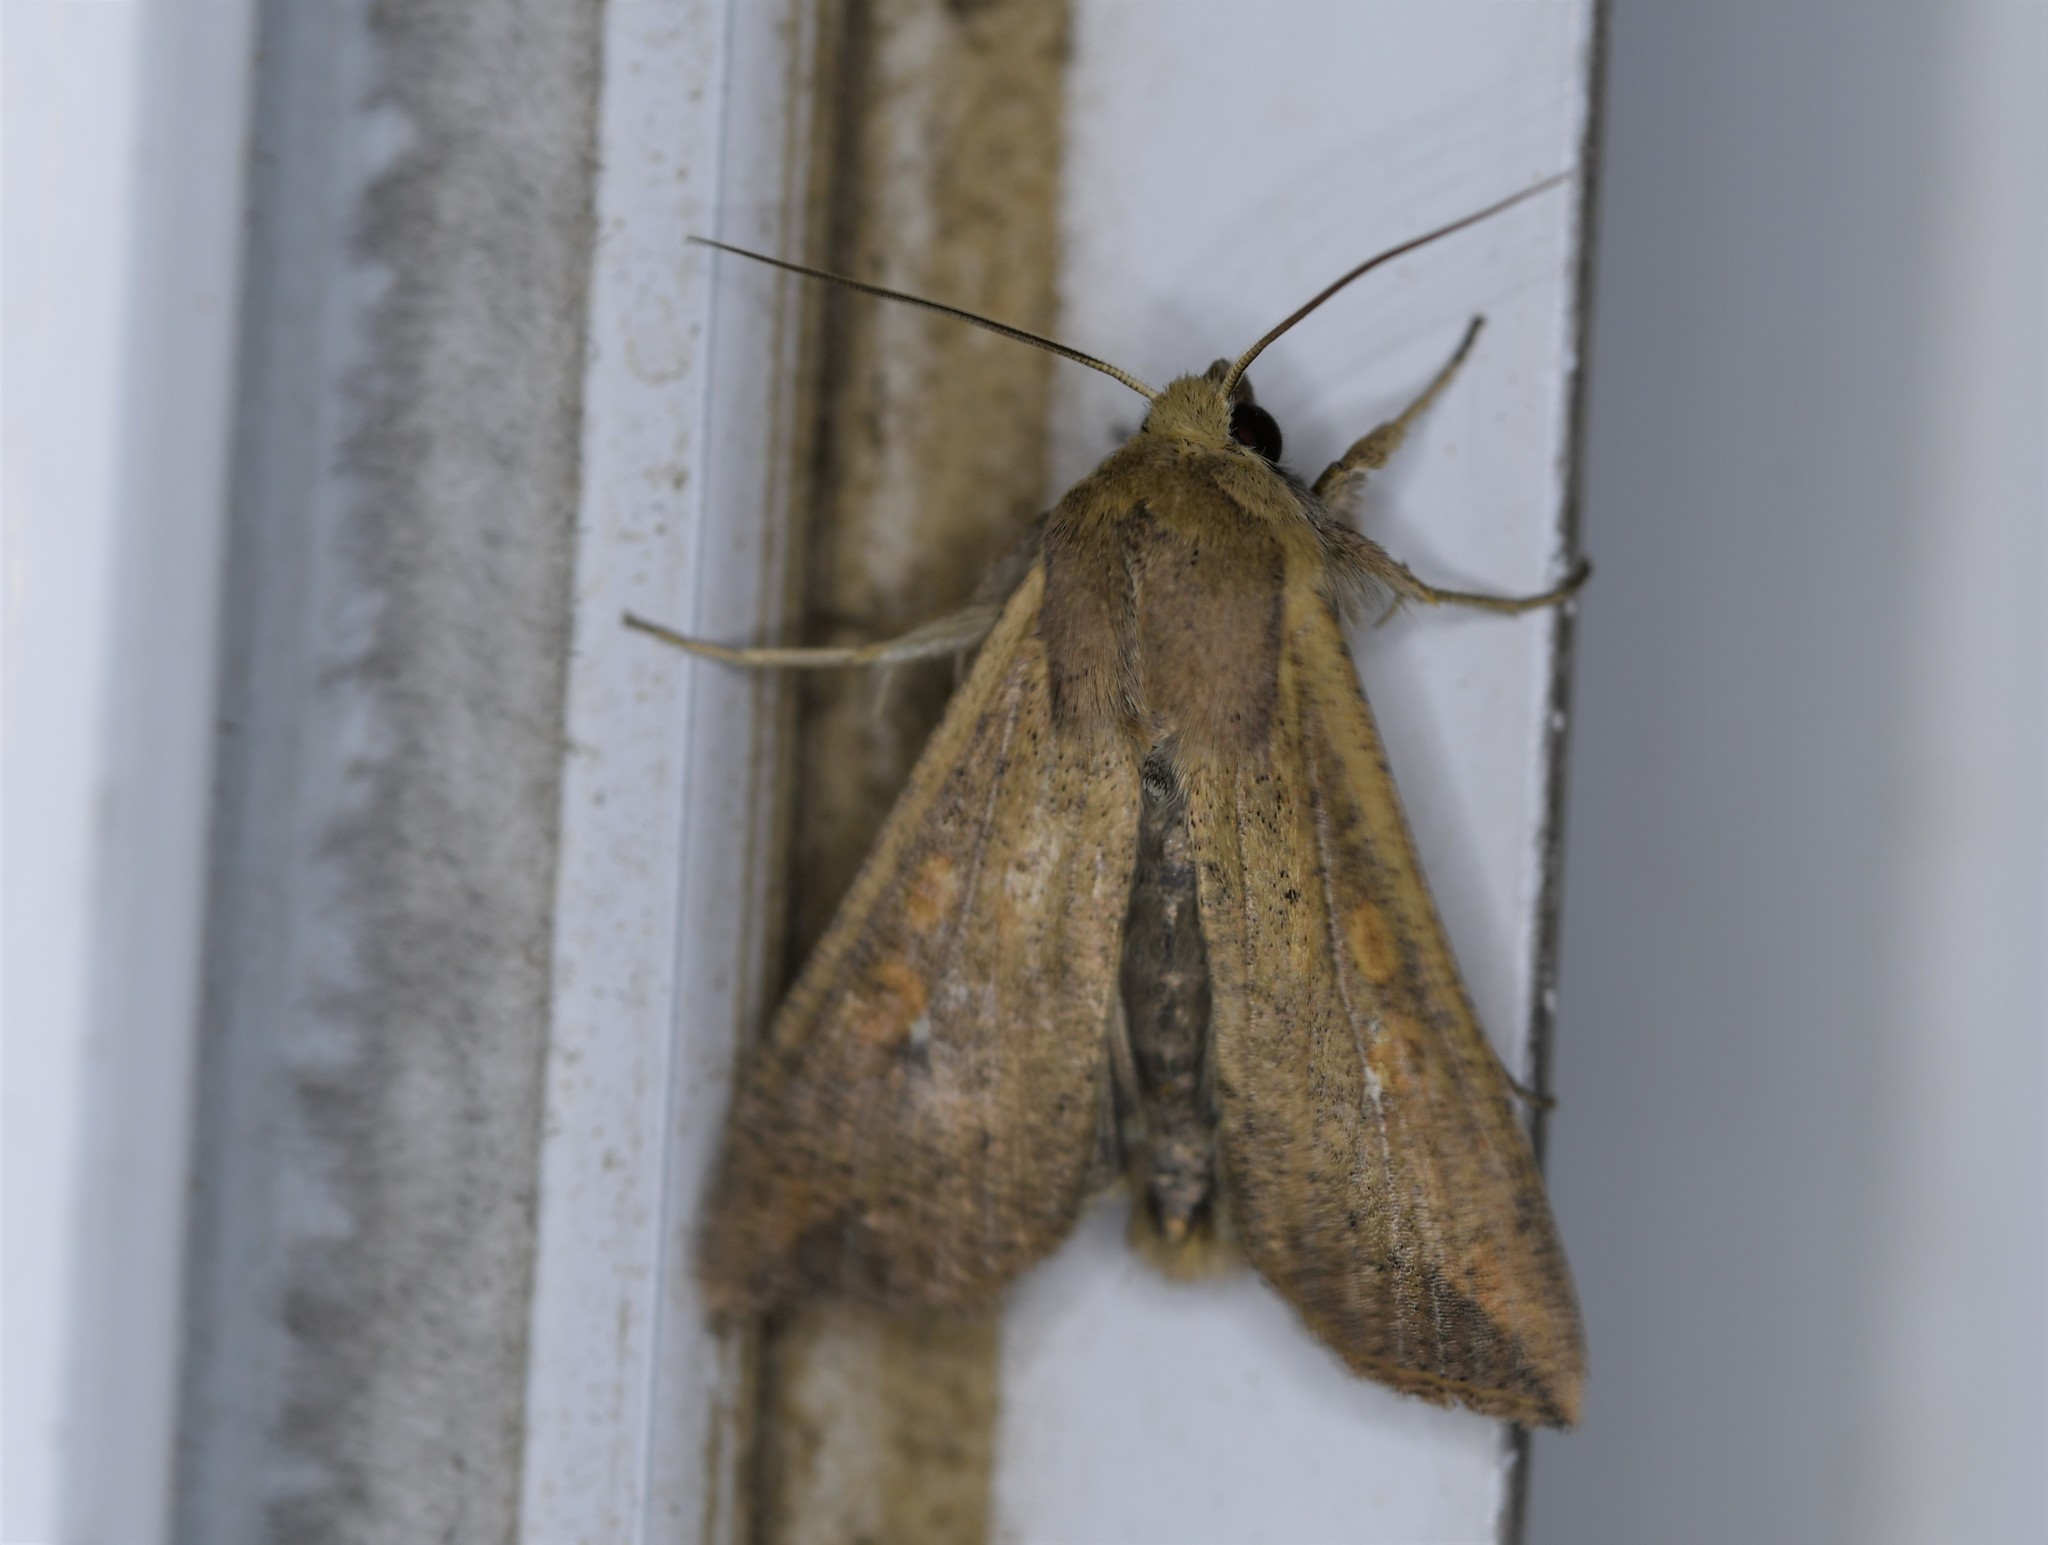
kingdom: Animalia
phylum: Arthropoda
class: Insecta
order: Lepidoptera
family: Noctuidae
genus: Mythimna
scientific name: Mythimna unipuncta
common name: White-speck
